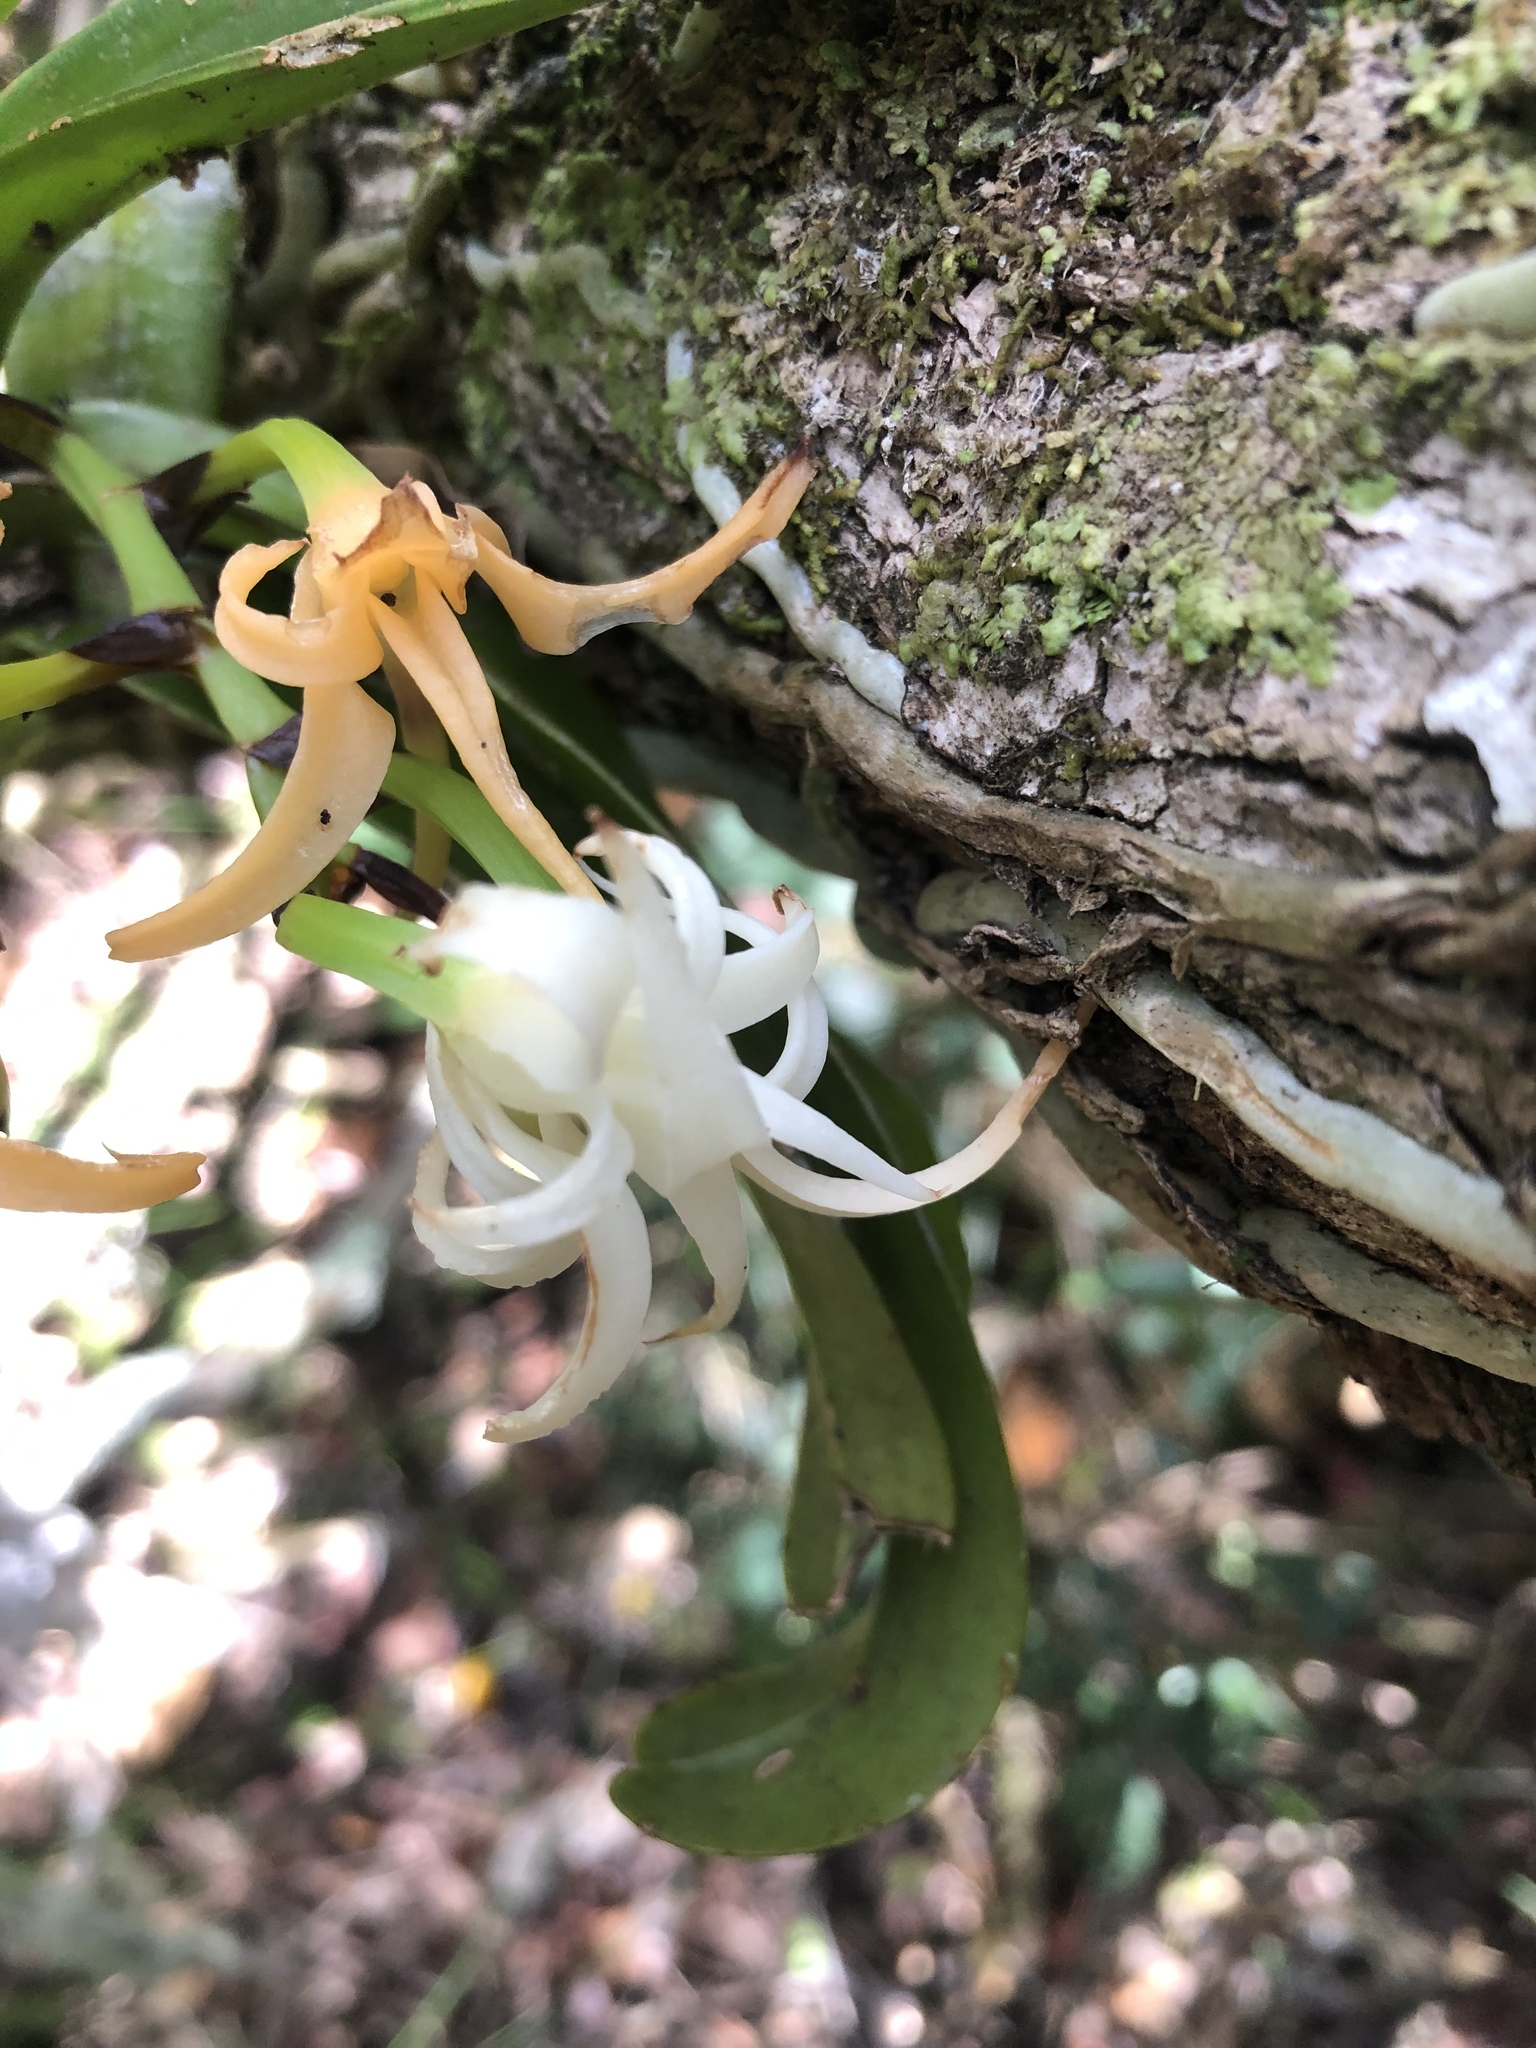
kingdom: Plantae
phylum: Tracheophyta
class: Liliopsida
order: Asparagales
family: Orchidaceae
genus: Cyrtorchis
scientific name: Cyrtorchis arcuata
